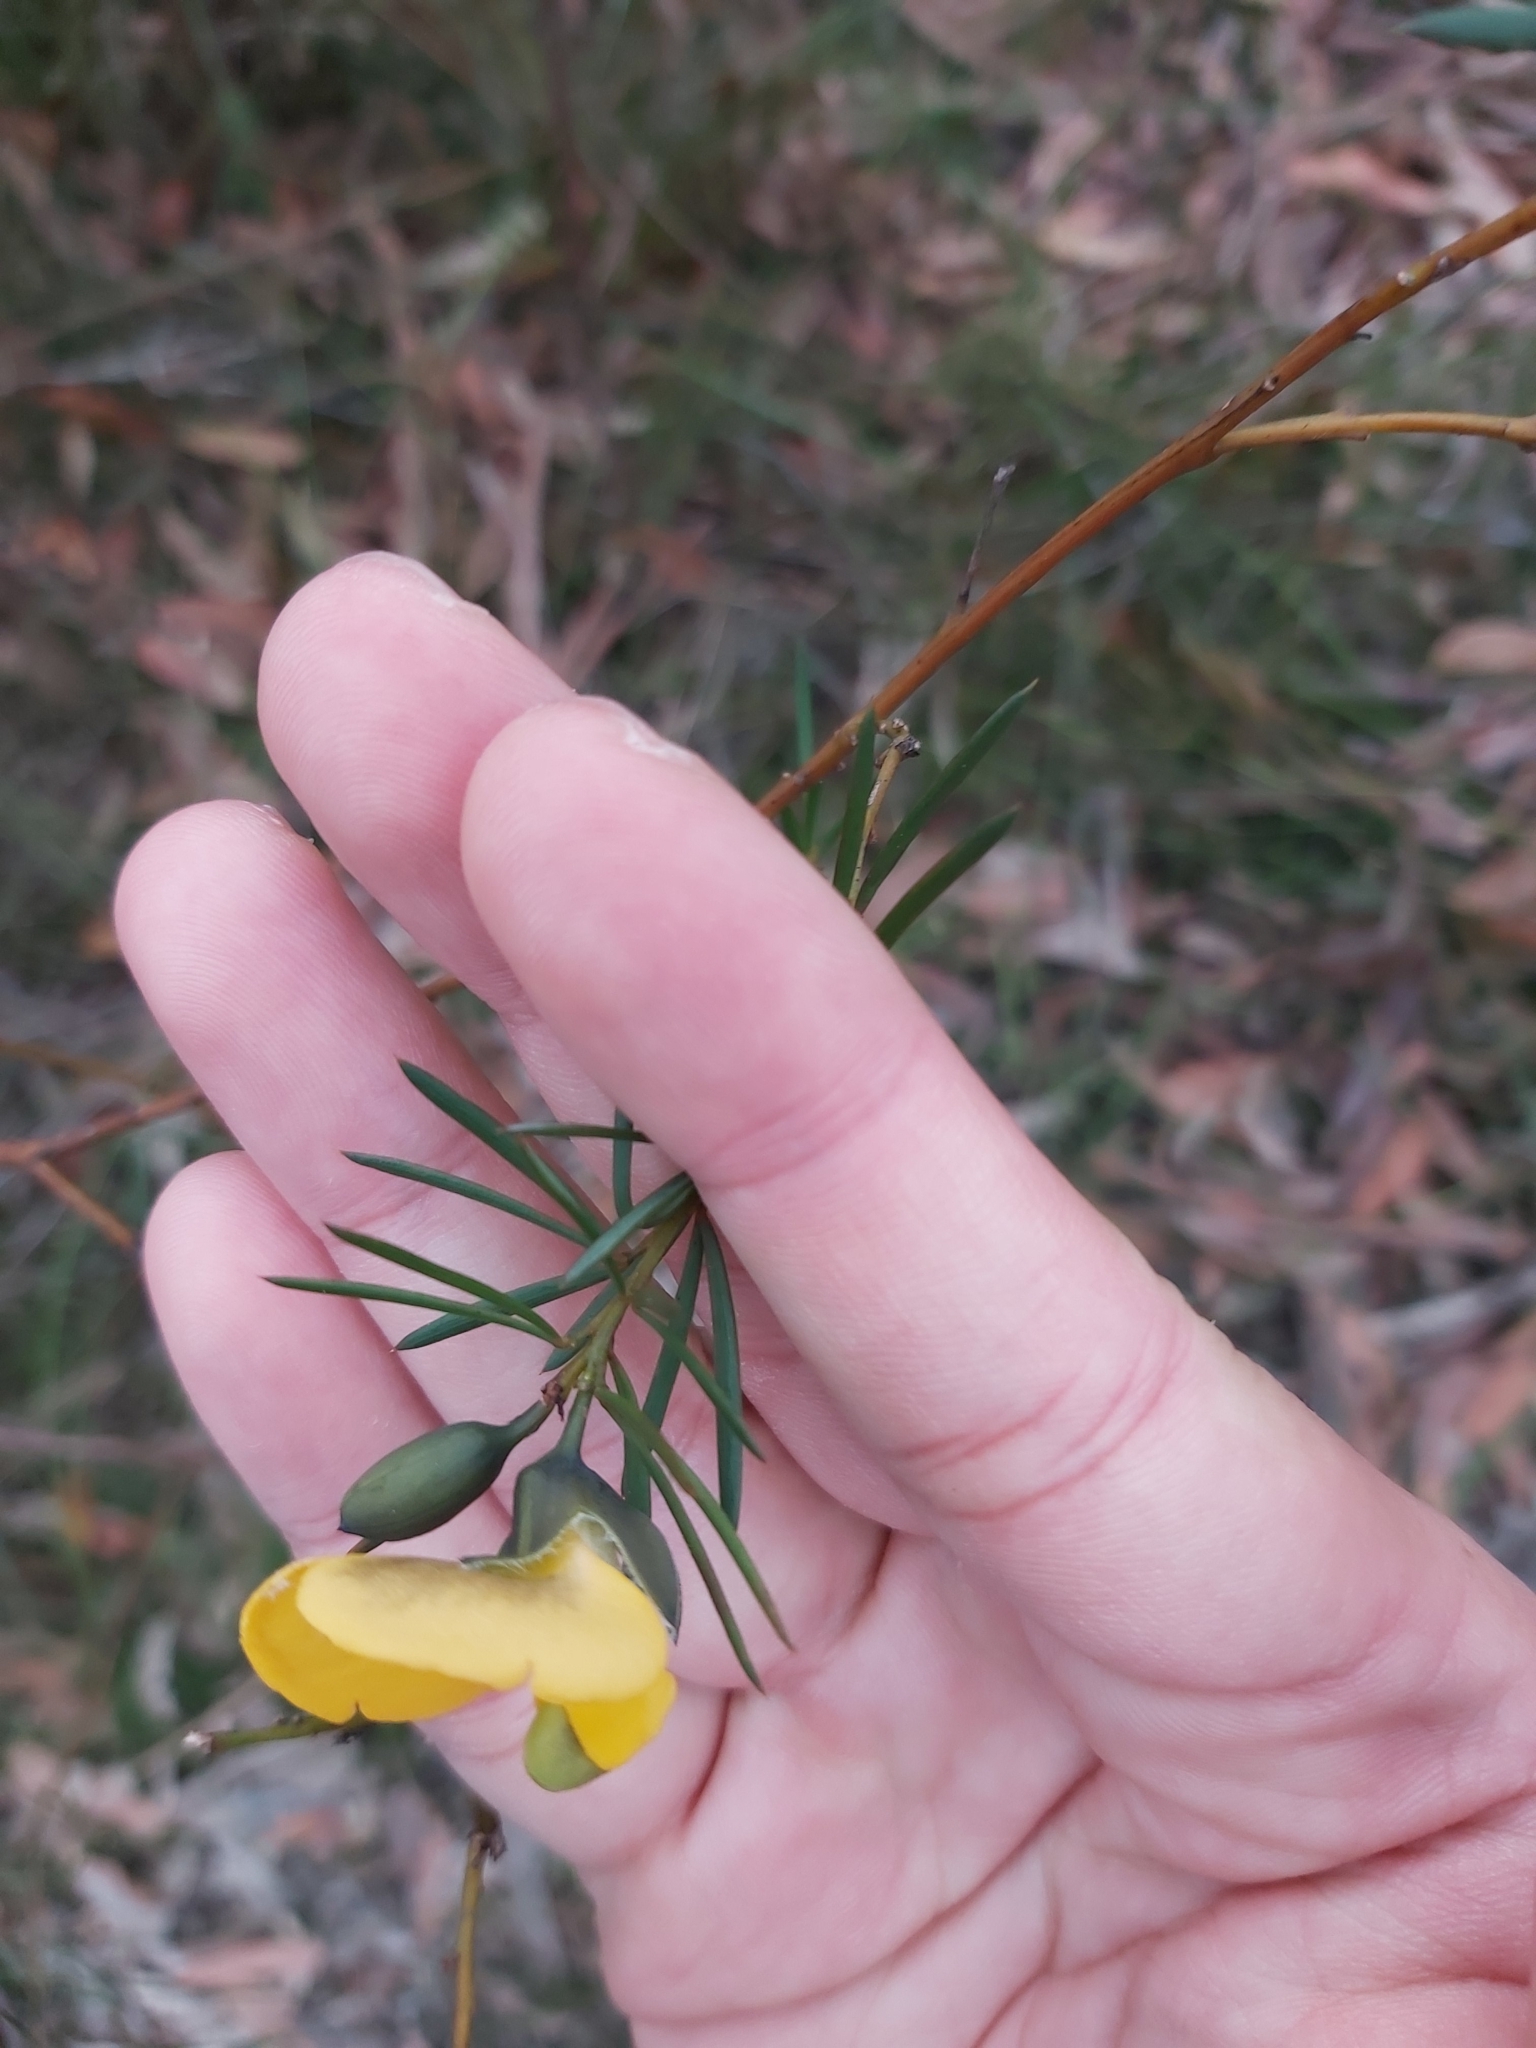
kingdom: Plantae
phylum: Tracheophyta
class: Magnoliopsida
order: Fabales
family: Fabaceae
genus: Gompholobium
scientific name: Gompholobium grandiflorum
